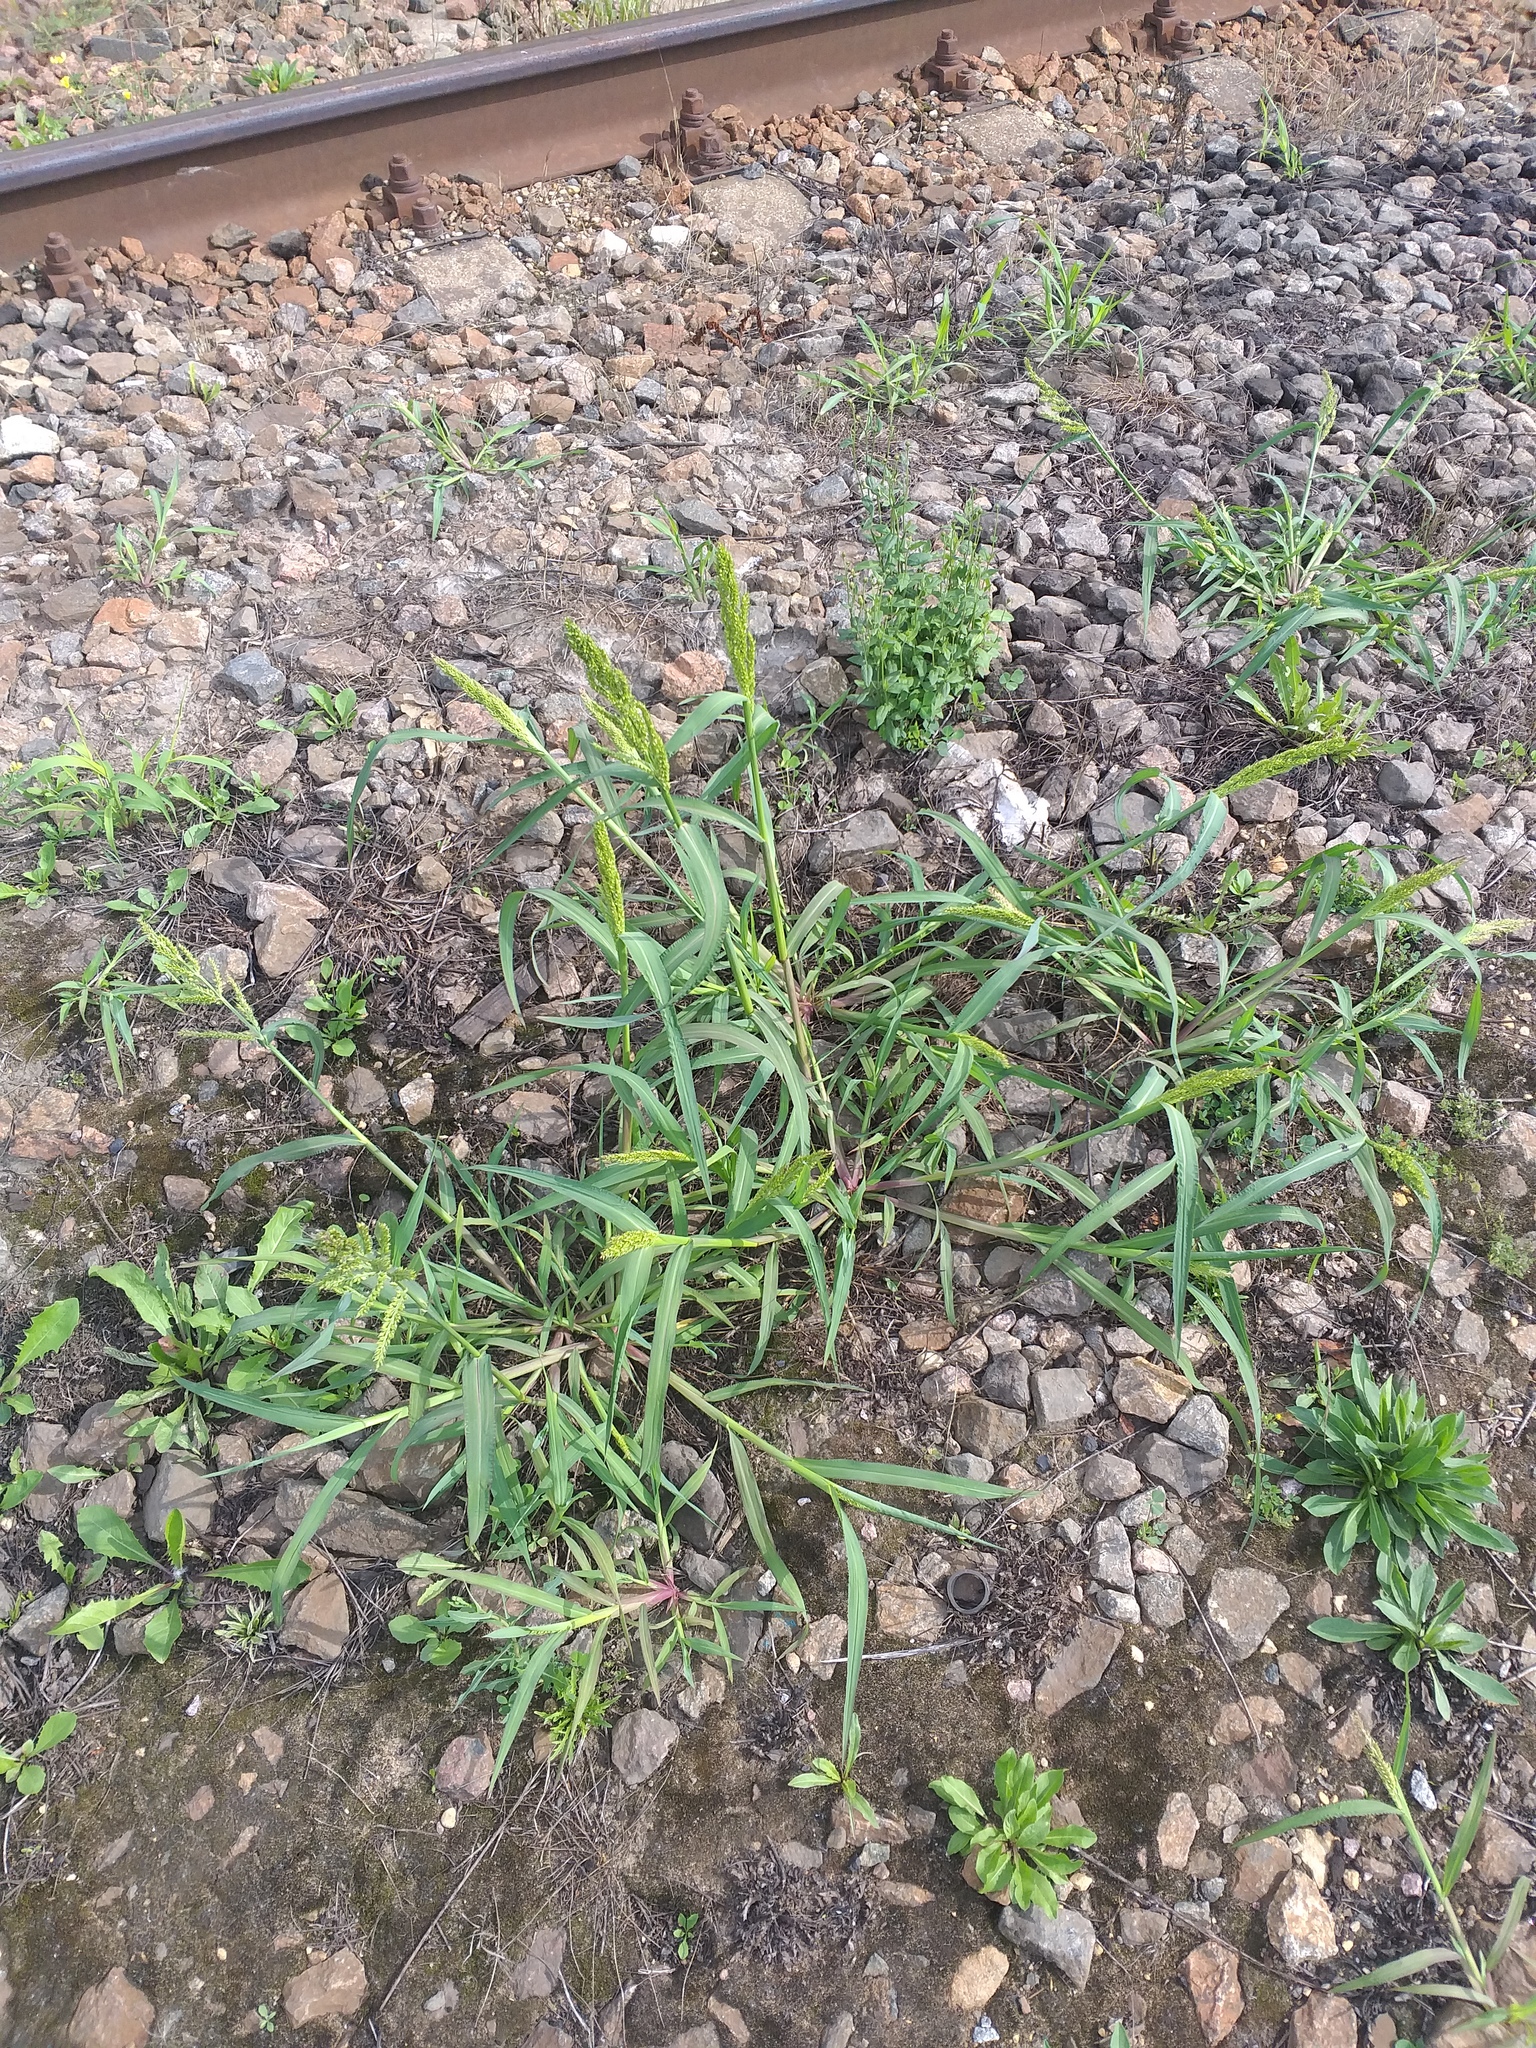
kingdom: Plantae
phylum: Tracheophyta
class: Liliopsida
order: Poales
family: Poaceae
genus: Echinochloa
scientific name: Echinochloa crus-galli
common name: Cockspur
